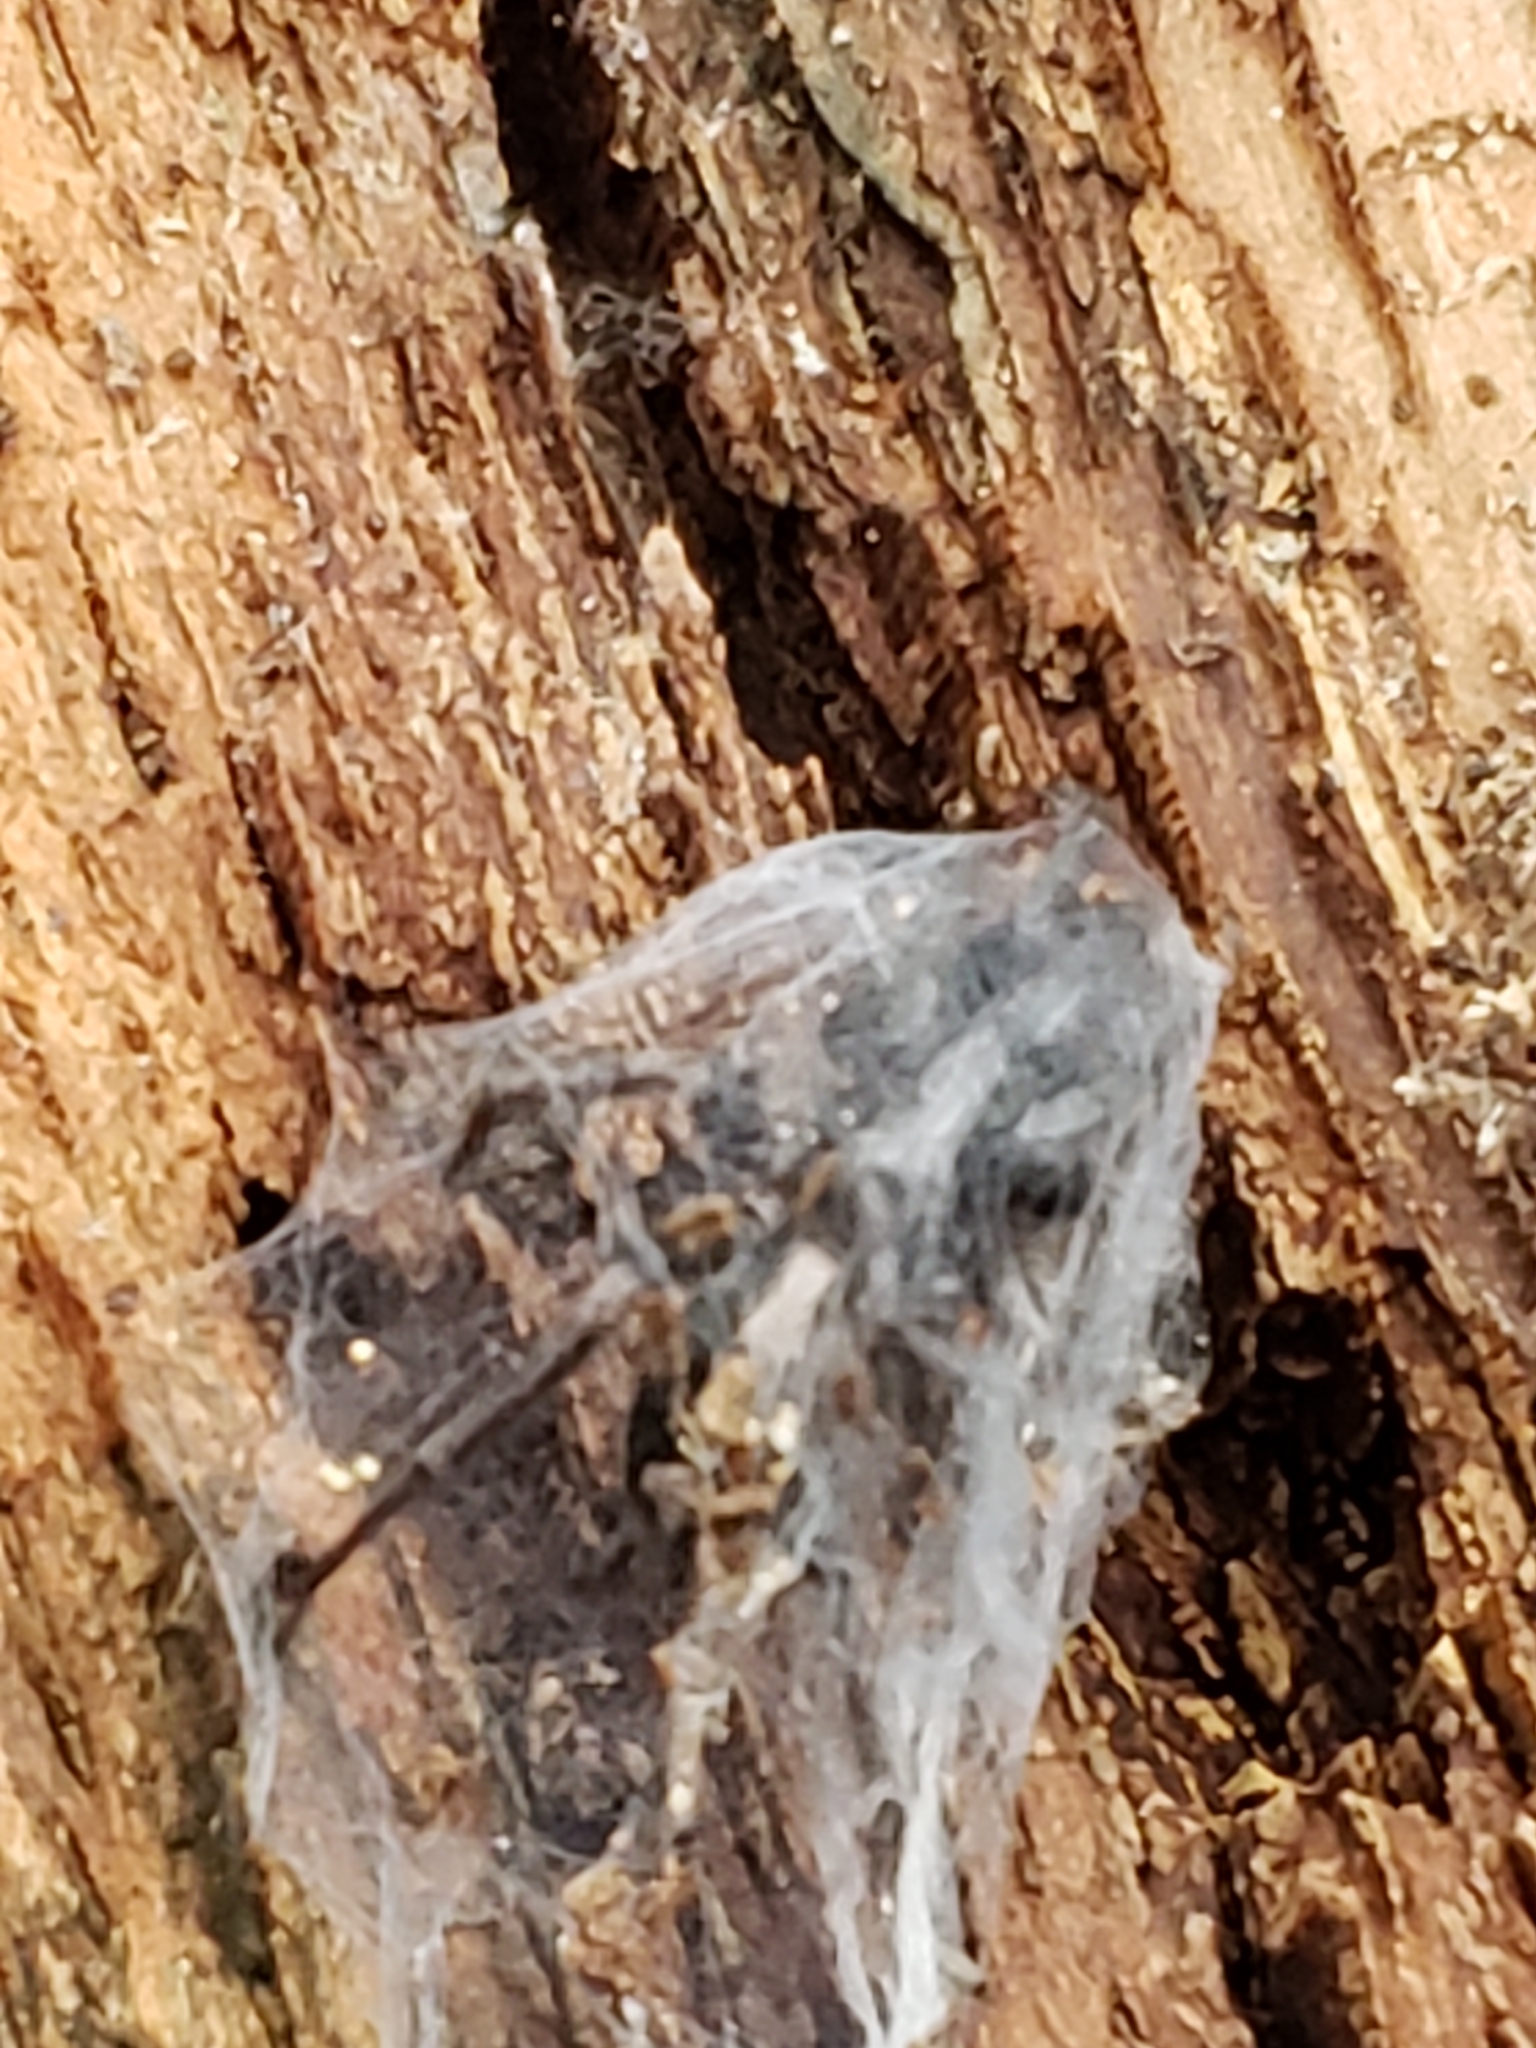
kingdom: Animalia
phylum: Arthropoda
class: Arachnida
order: Araneae
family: Gnaphosidae
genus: Herpyllus
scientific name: Herpyllus ecclesiasticus
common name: Eastern parson spider
